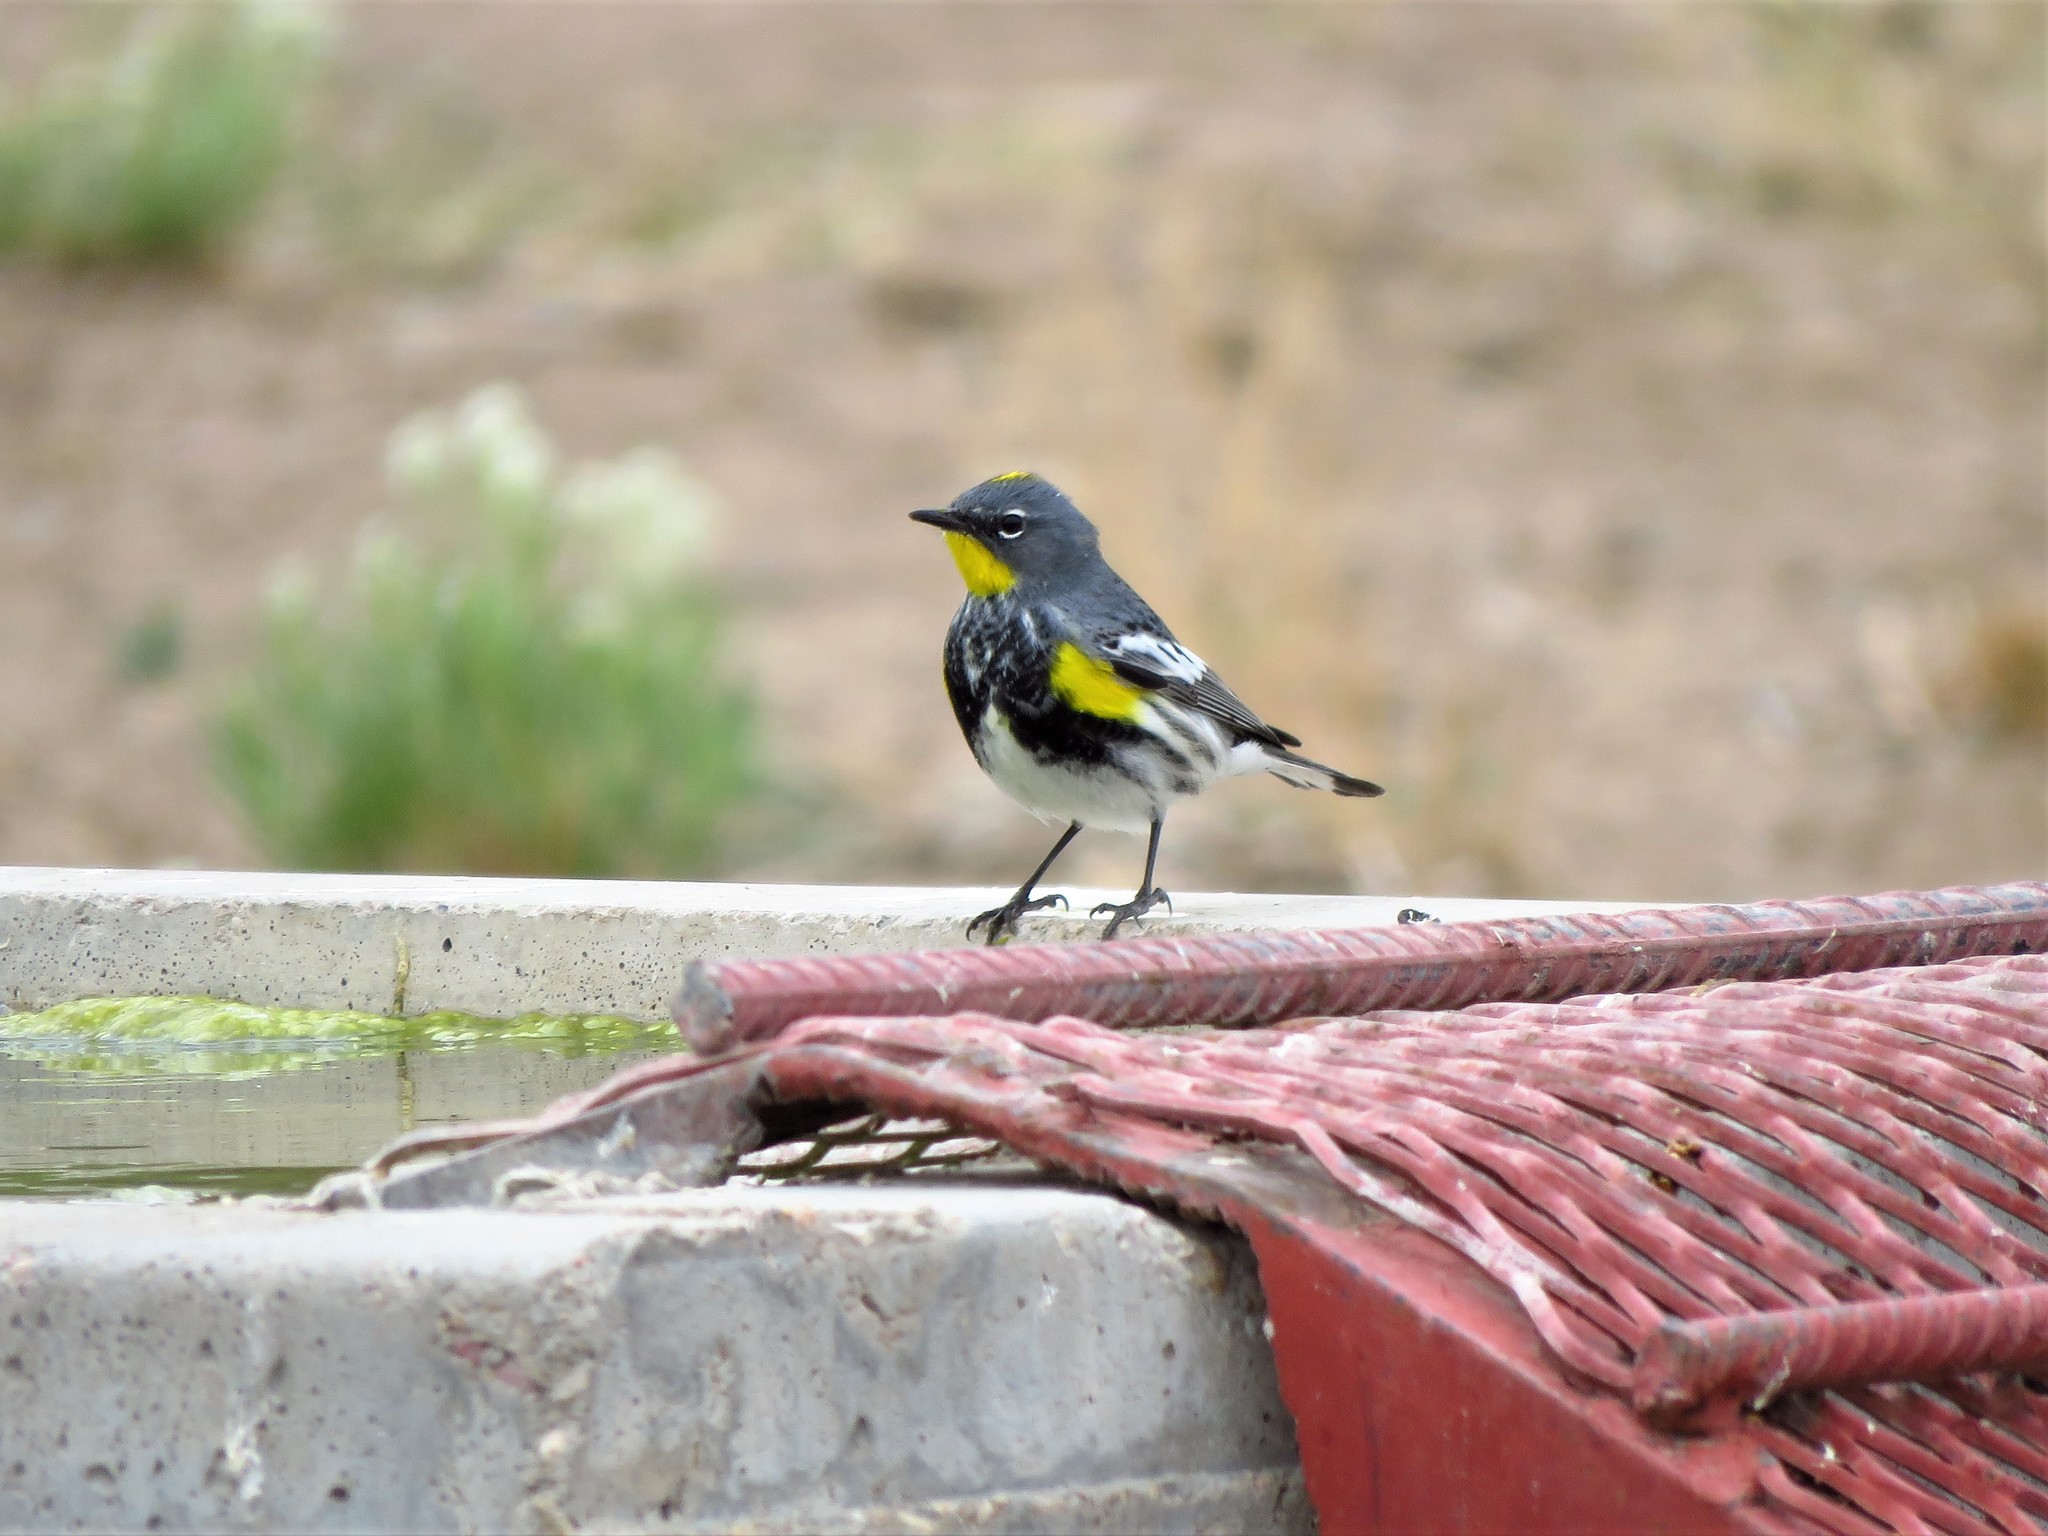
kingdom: Animalia
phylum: Chordata
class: Aves
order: Passeriformes
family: Parulidae
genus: Setophaga
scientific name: Setophaga auduboni
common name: Audubon's warbler
